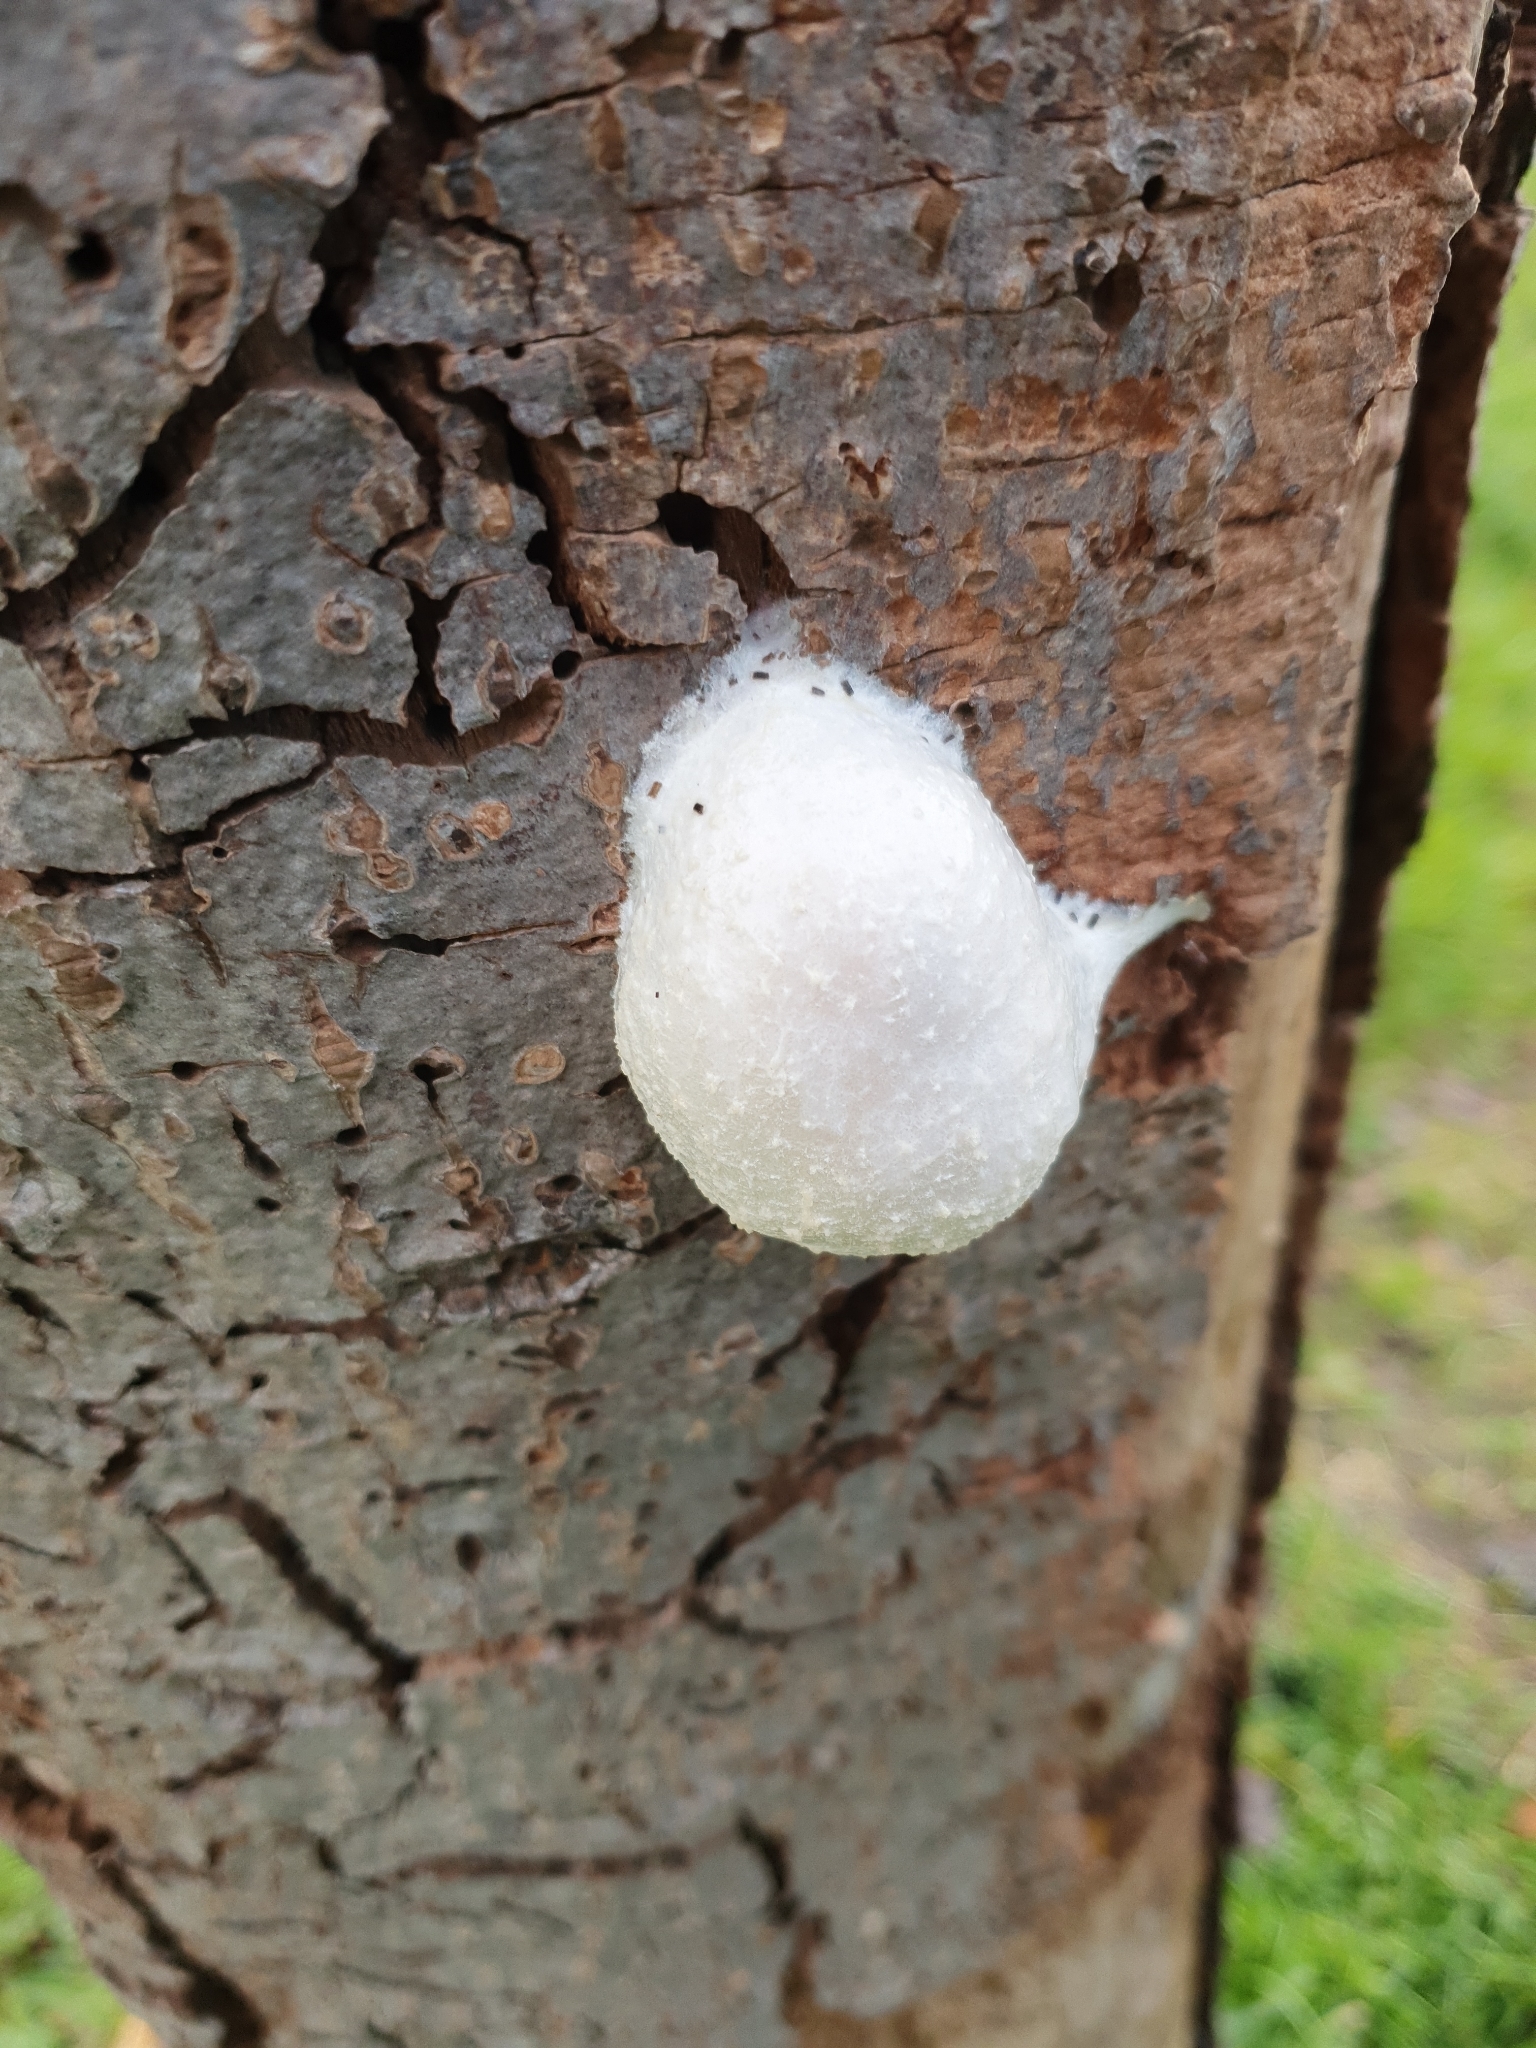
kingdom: Protozoa
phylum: Mycetozoa
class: Myxomycetes
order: Cribrariales
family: Tubiferaceae
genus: Reticularia
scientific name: Reticularia lycoperdon
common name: False puffball
